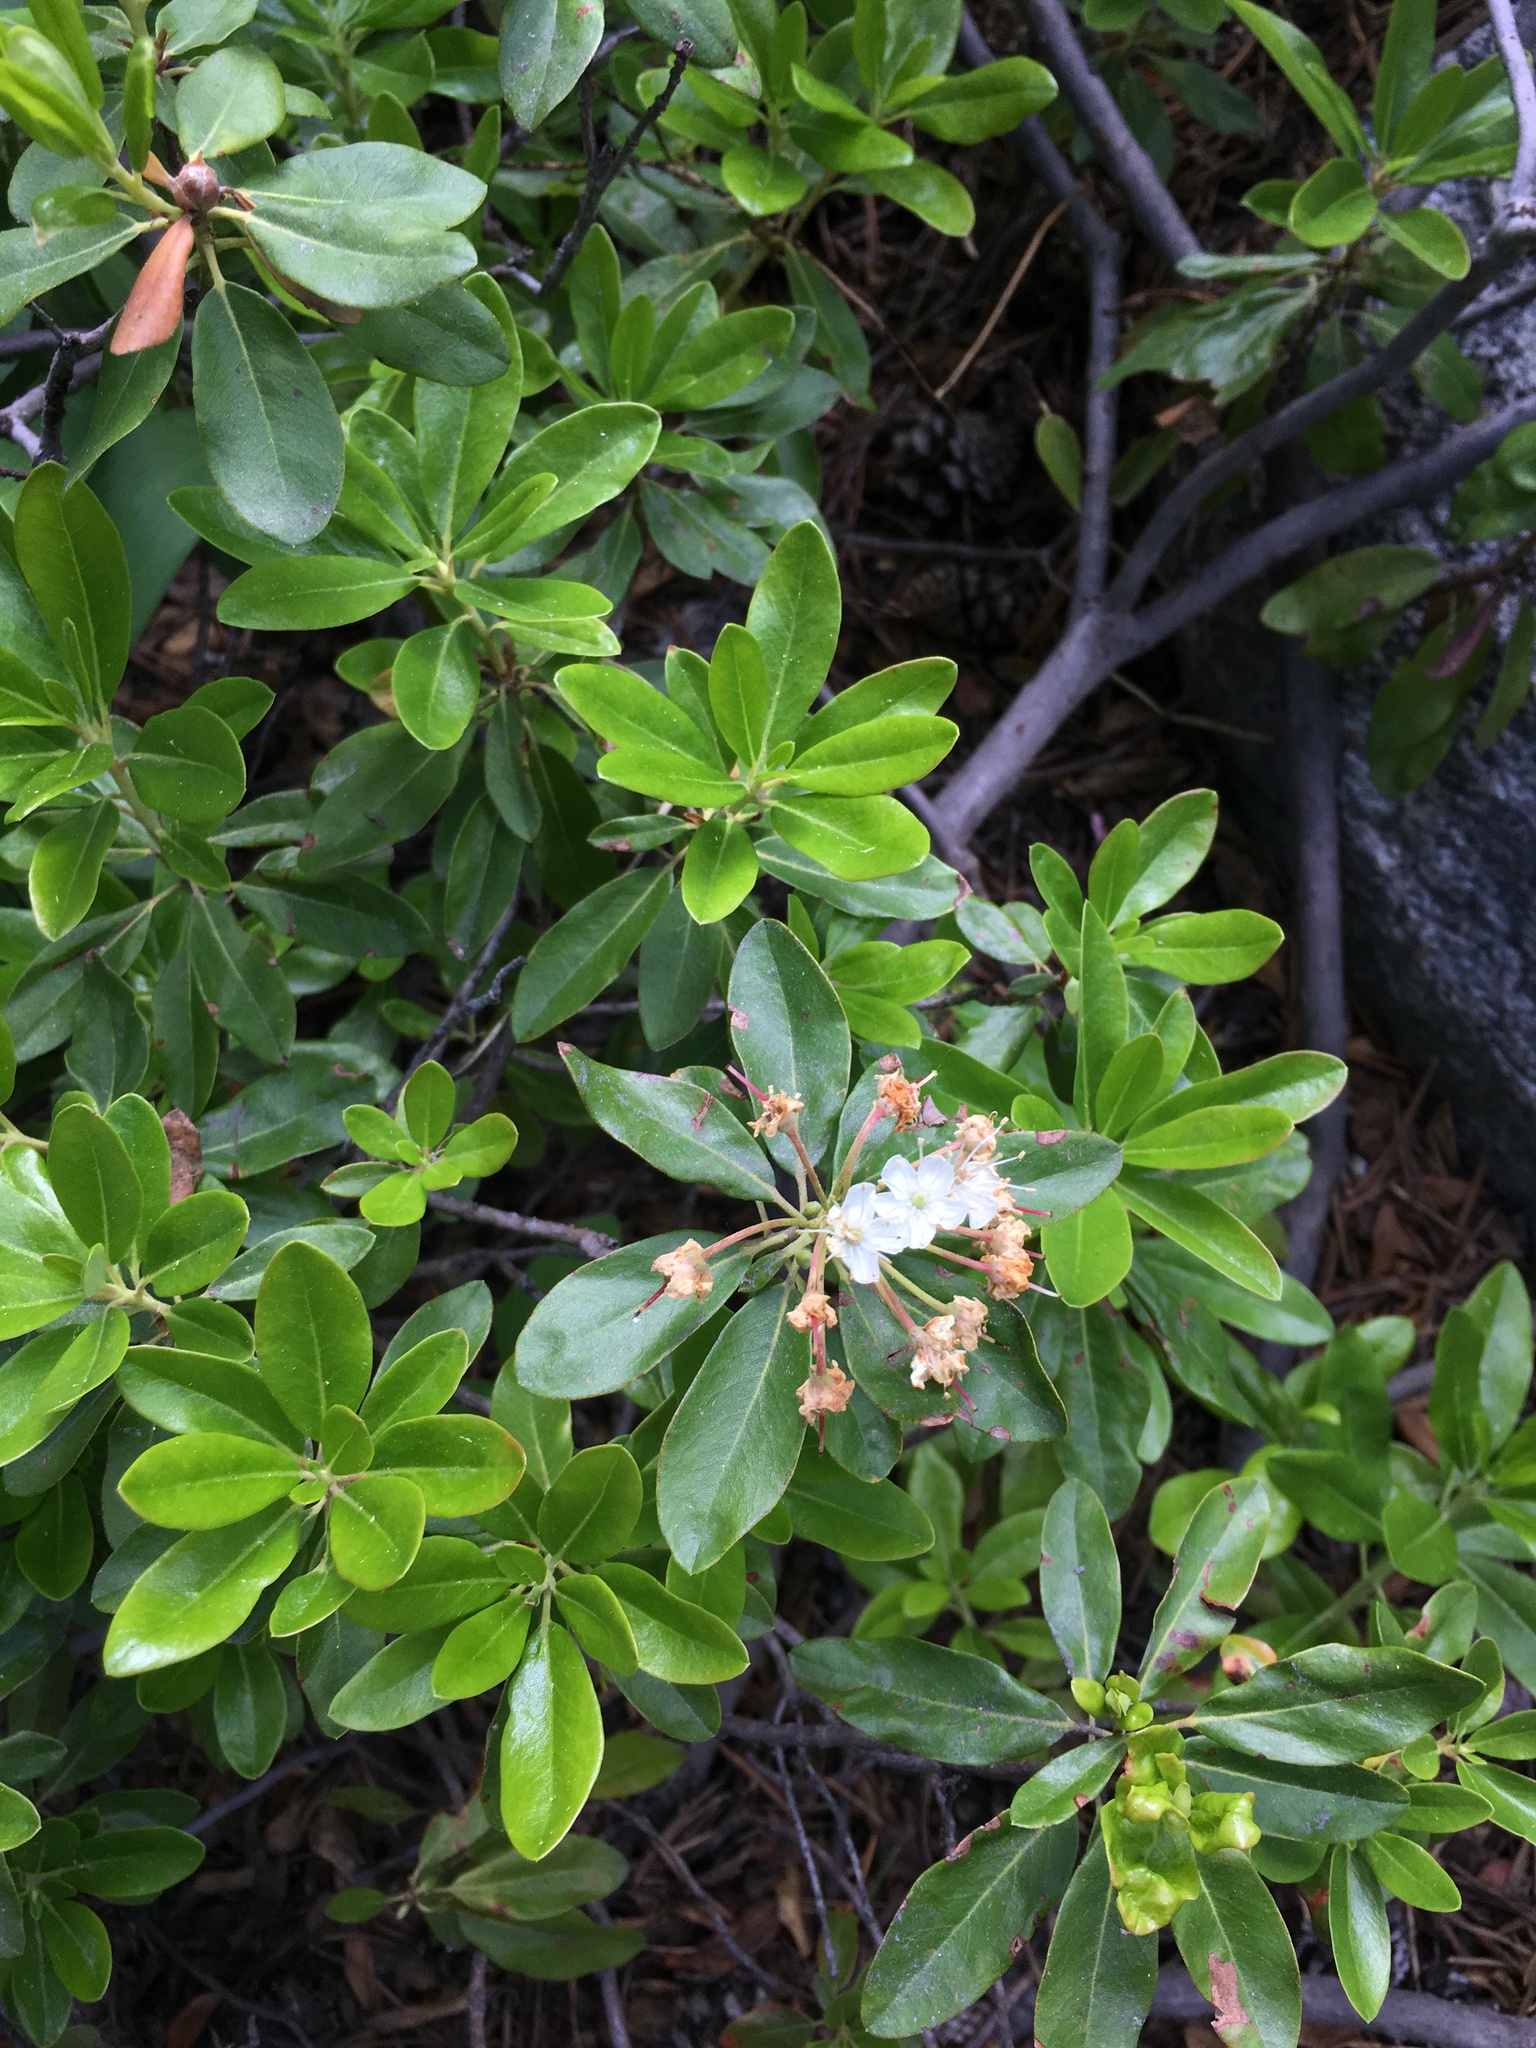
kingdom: Plantae
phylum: Tracheophyta
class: Magnoliopsida
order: Ericales
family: Ericaceae
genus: Rhododendron
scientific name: Rhododendron columbianum
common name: Western labrador tea
